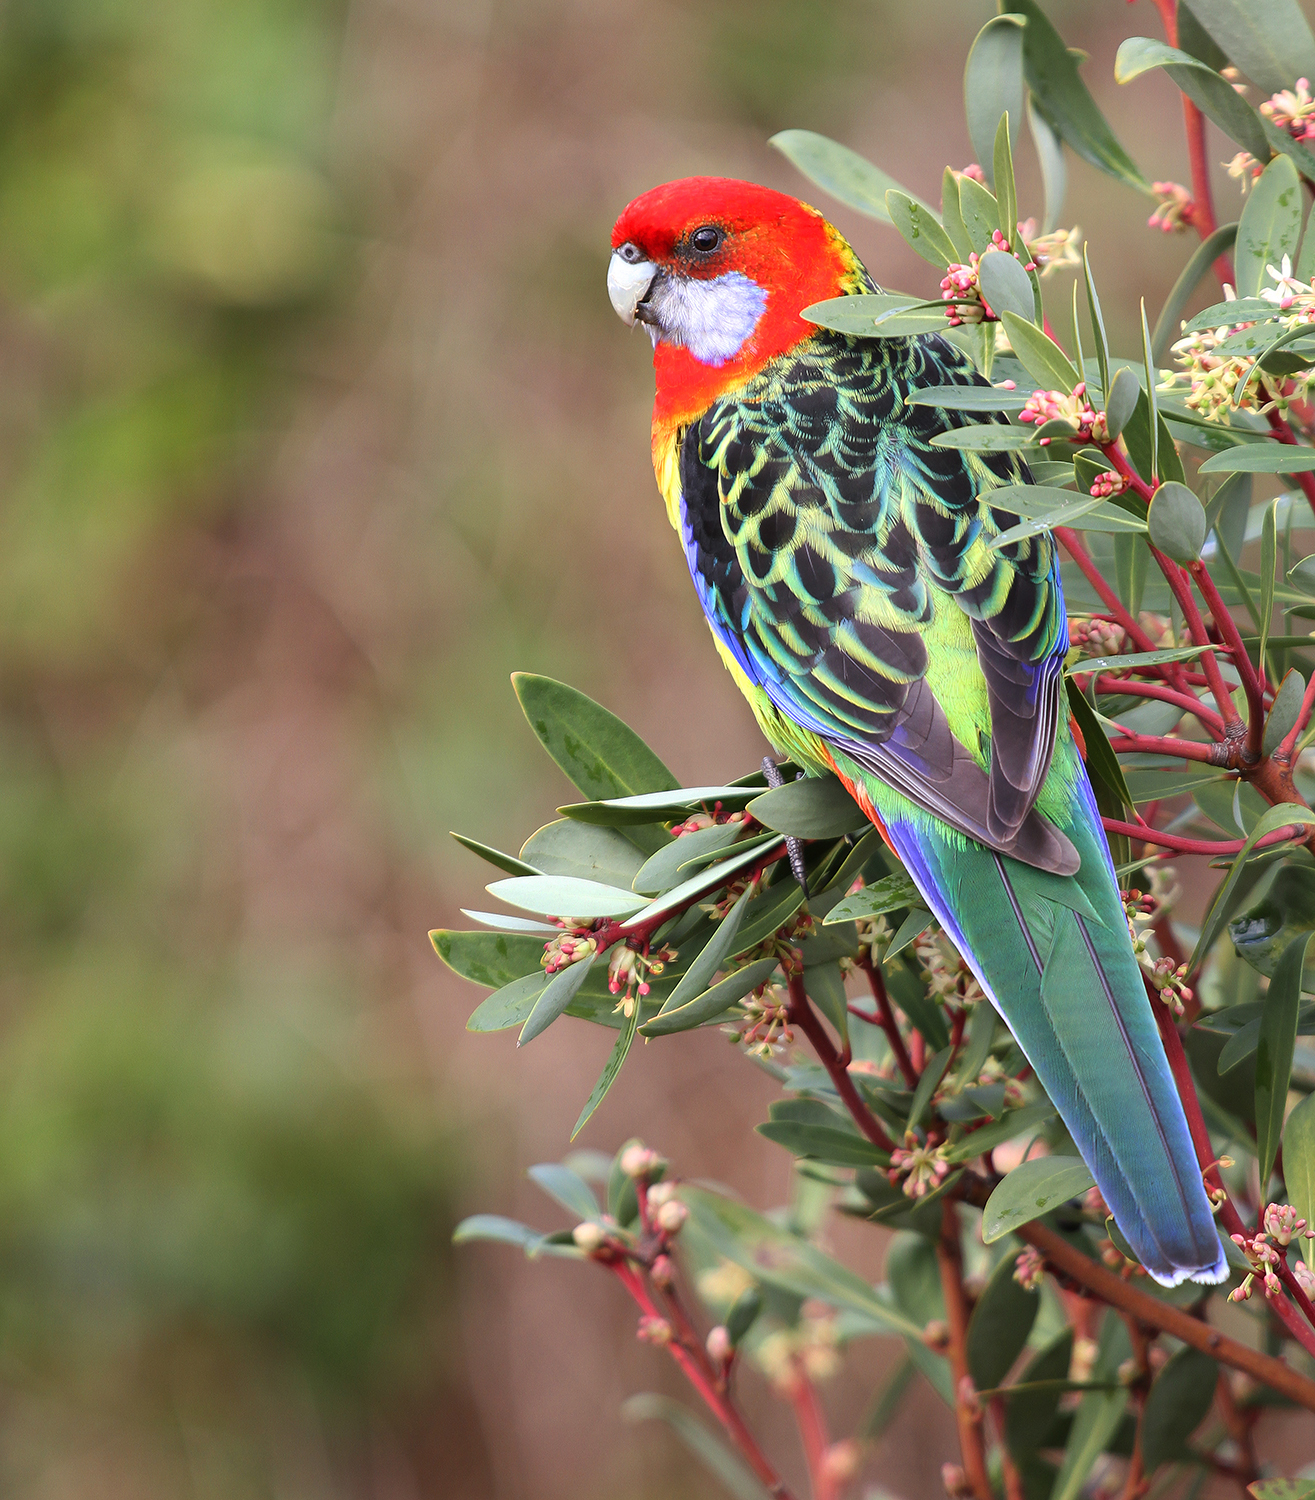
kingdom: Animalia
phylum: Chordata
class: Aves
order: Psittaciformes
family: Psittacidae
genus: Platycercus
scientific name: Platycercus eximius
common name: Eastern rosella
